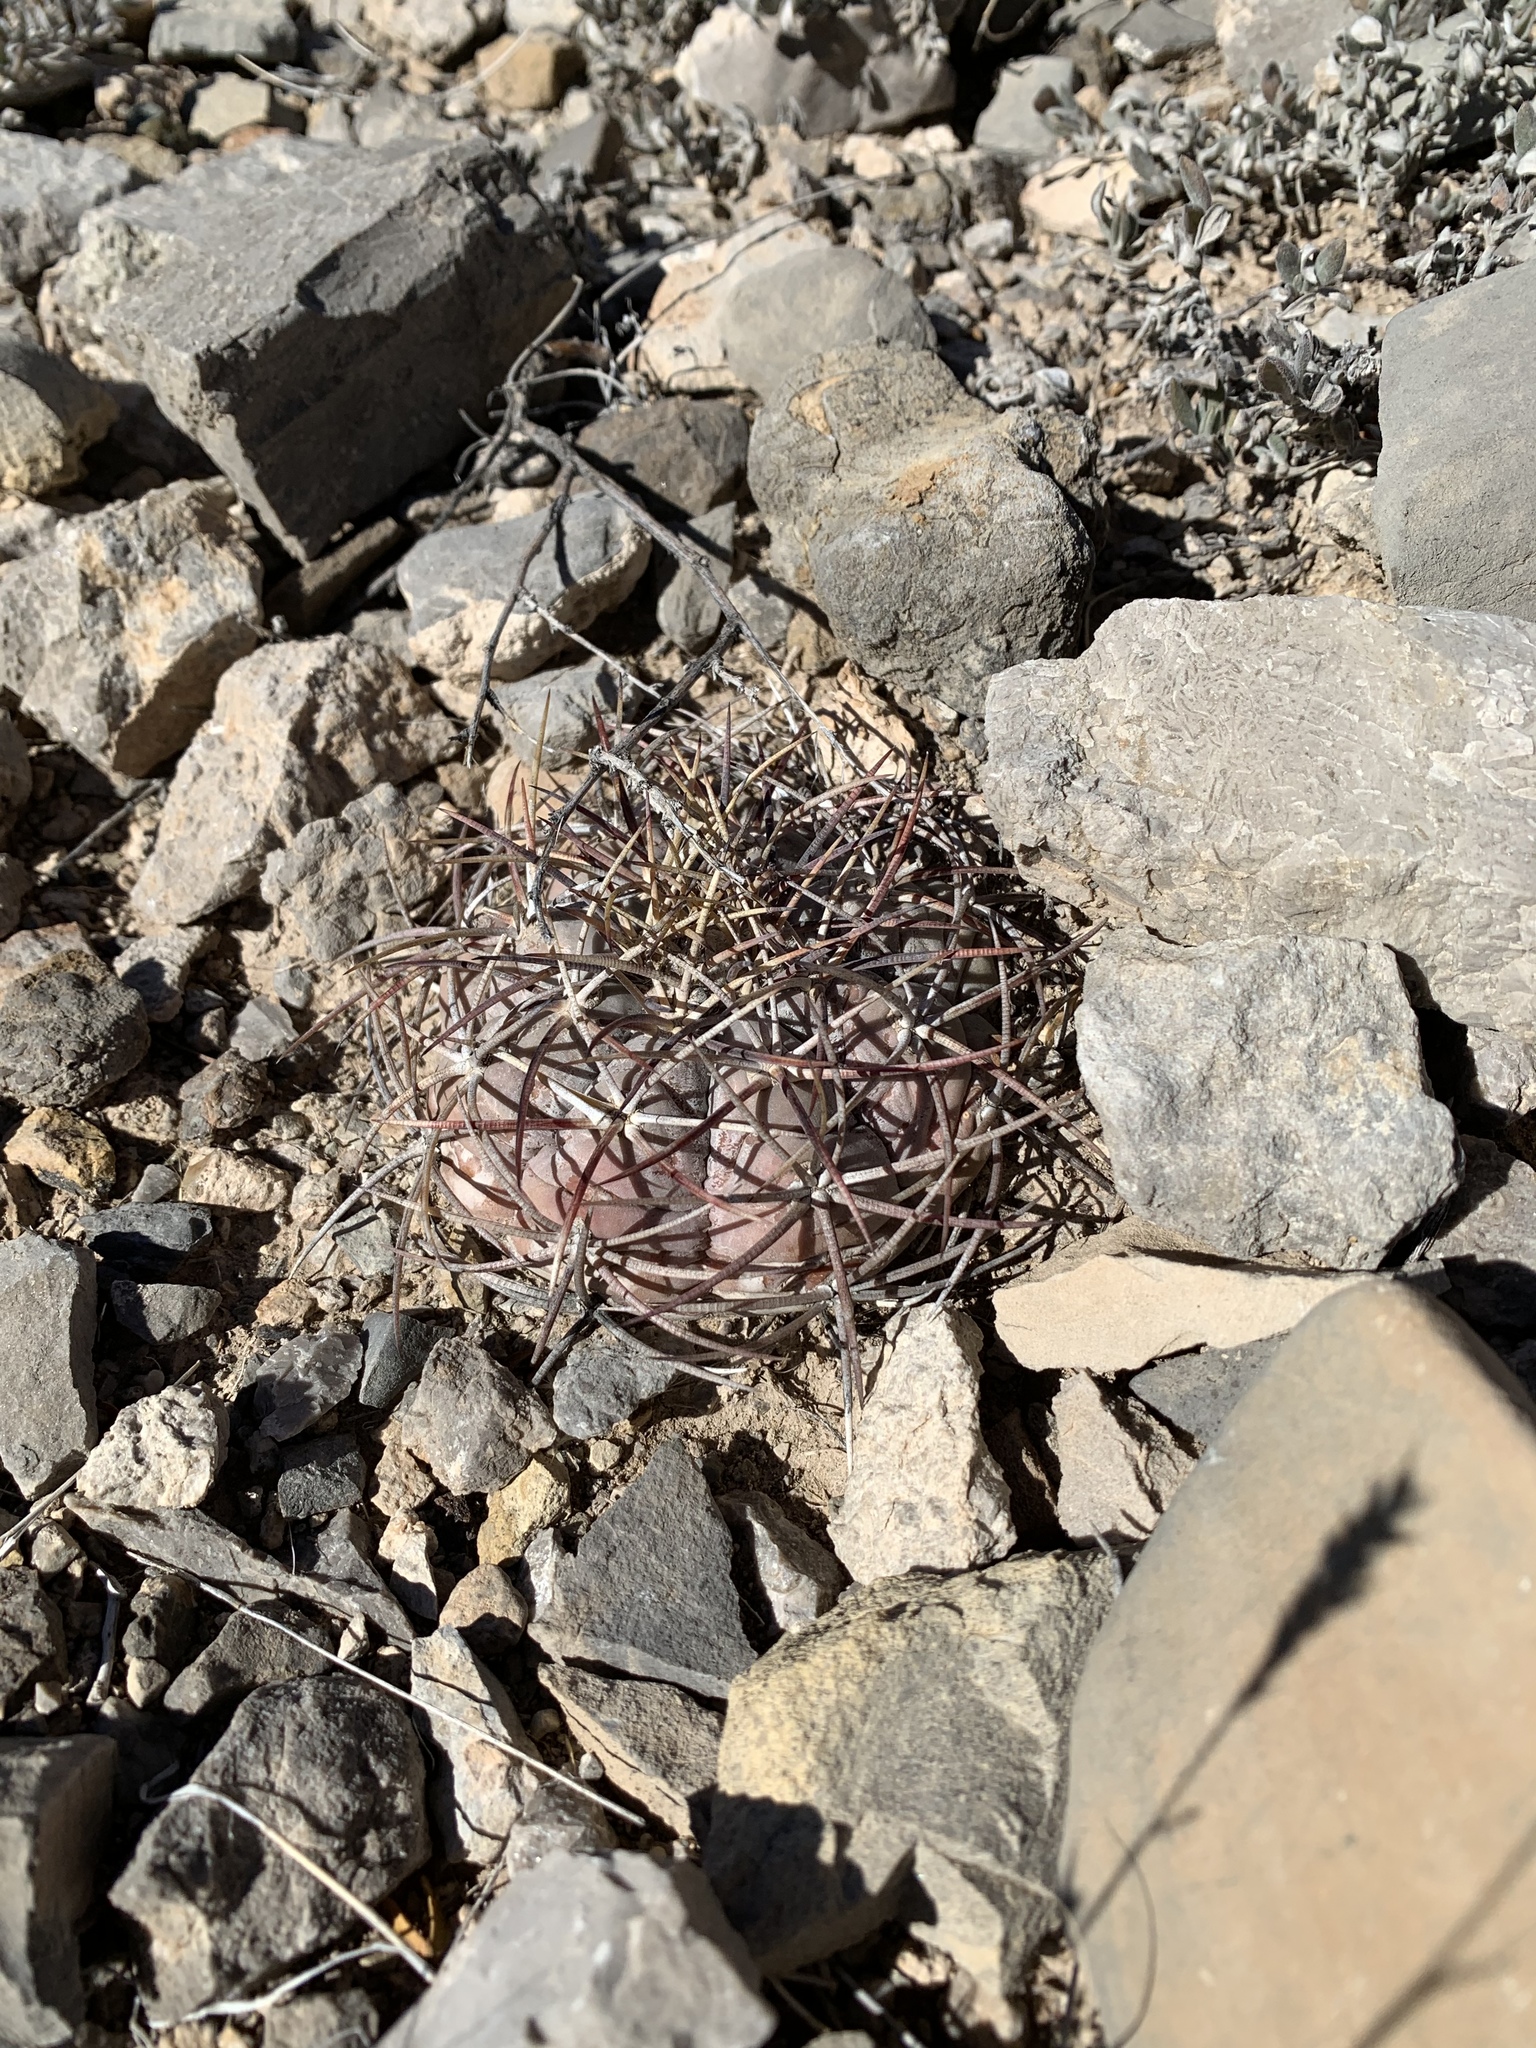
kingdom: Plantae
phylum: Tracheophyta
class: Magnoliopsida
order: Caryophyllales
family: Cactaceae
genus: Echinocactus
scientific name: Echinocactus horizonthalonius
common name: Devilshead
